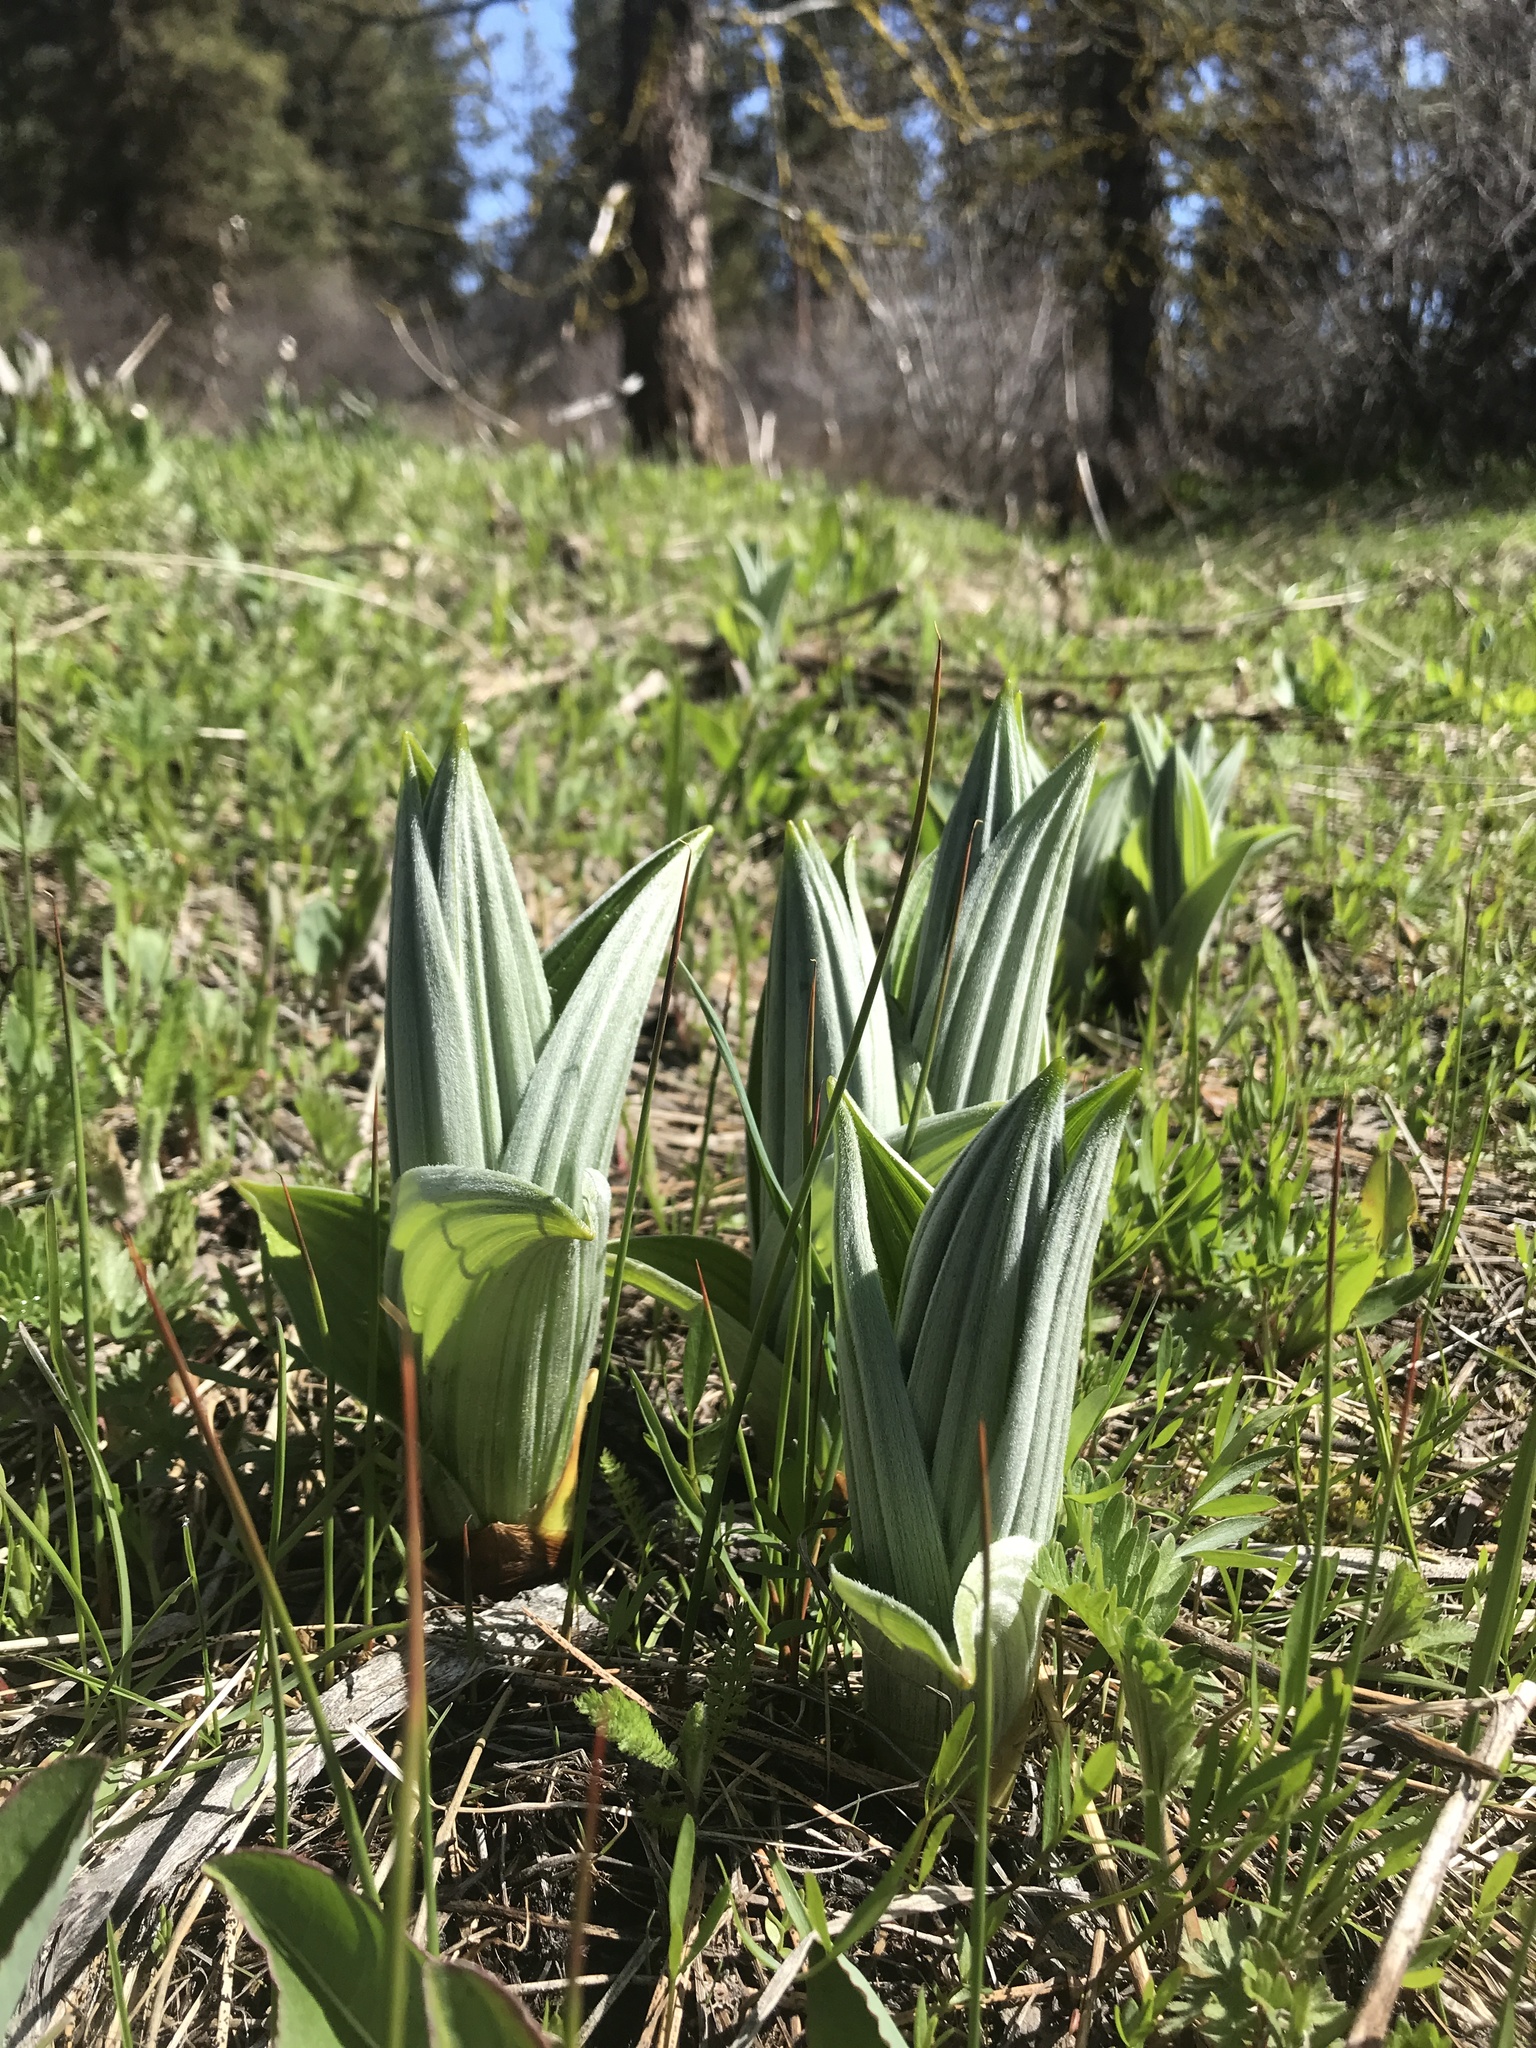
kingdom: Plantae
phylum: Tracheophyta
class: Liliopsida
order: Liliales
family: Melanthiaceae
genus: Veratrum
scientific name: Veratrum californicum
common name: California veratrum
